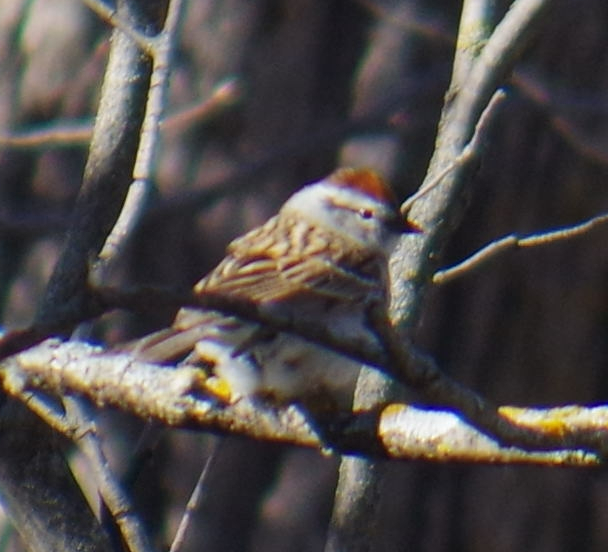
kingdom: Animalia
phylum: Chordata
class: Aves
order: Passeriformes
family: Passerellidae
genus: Spizella
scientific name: Spizella passerina
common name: Chipping sparrow
